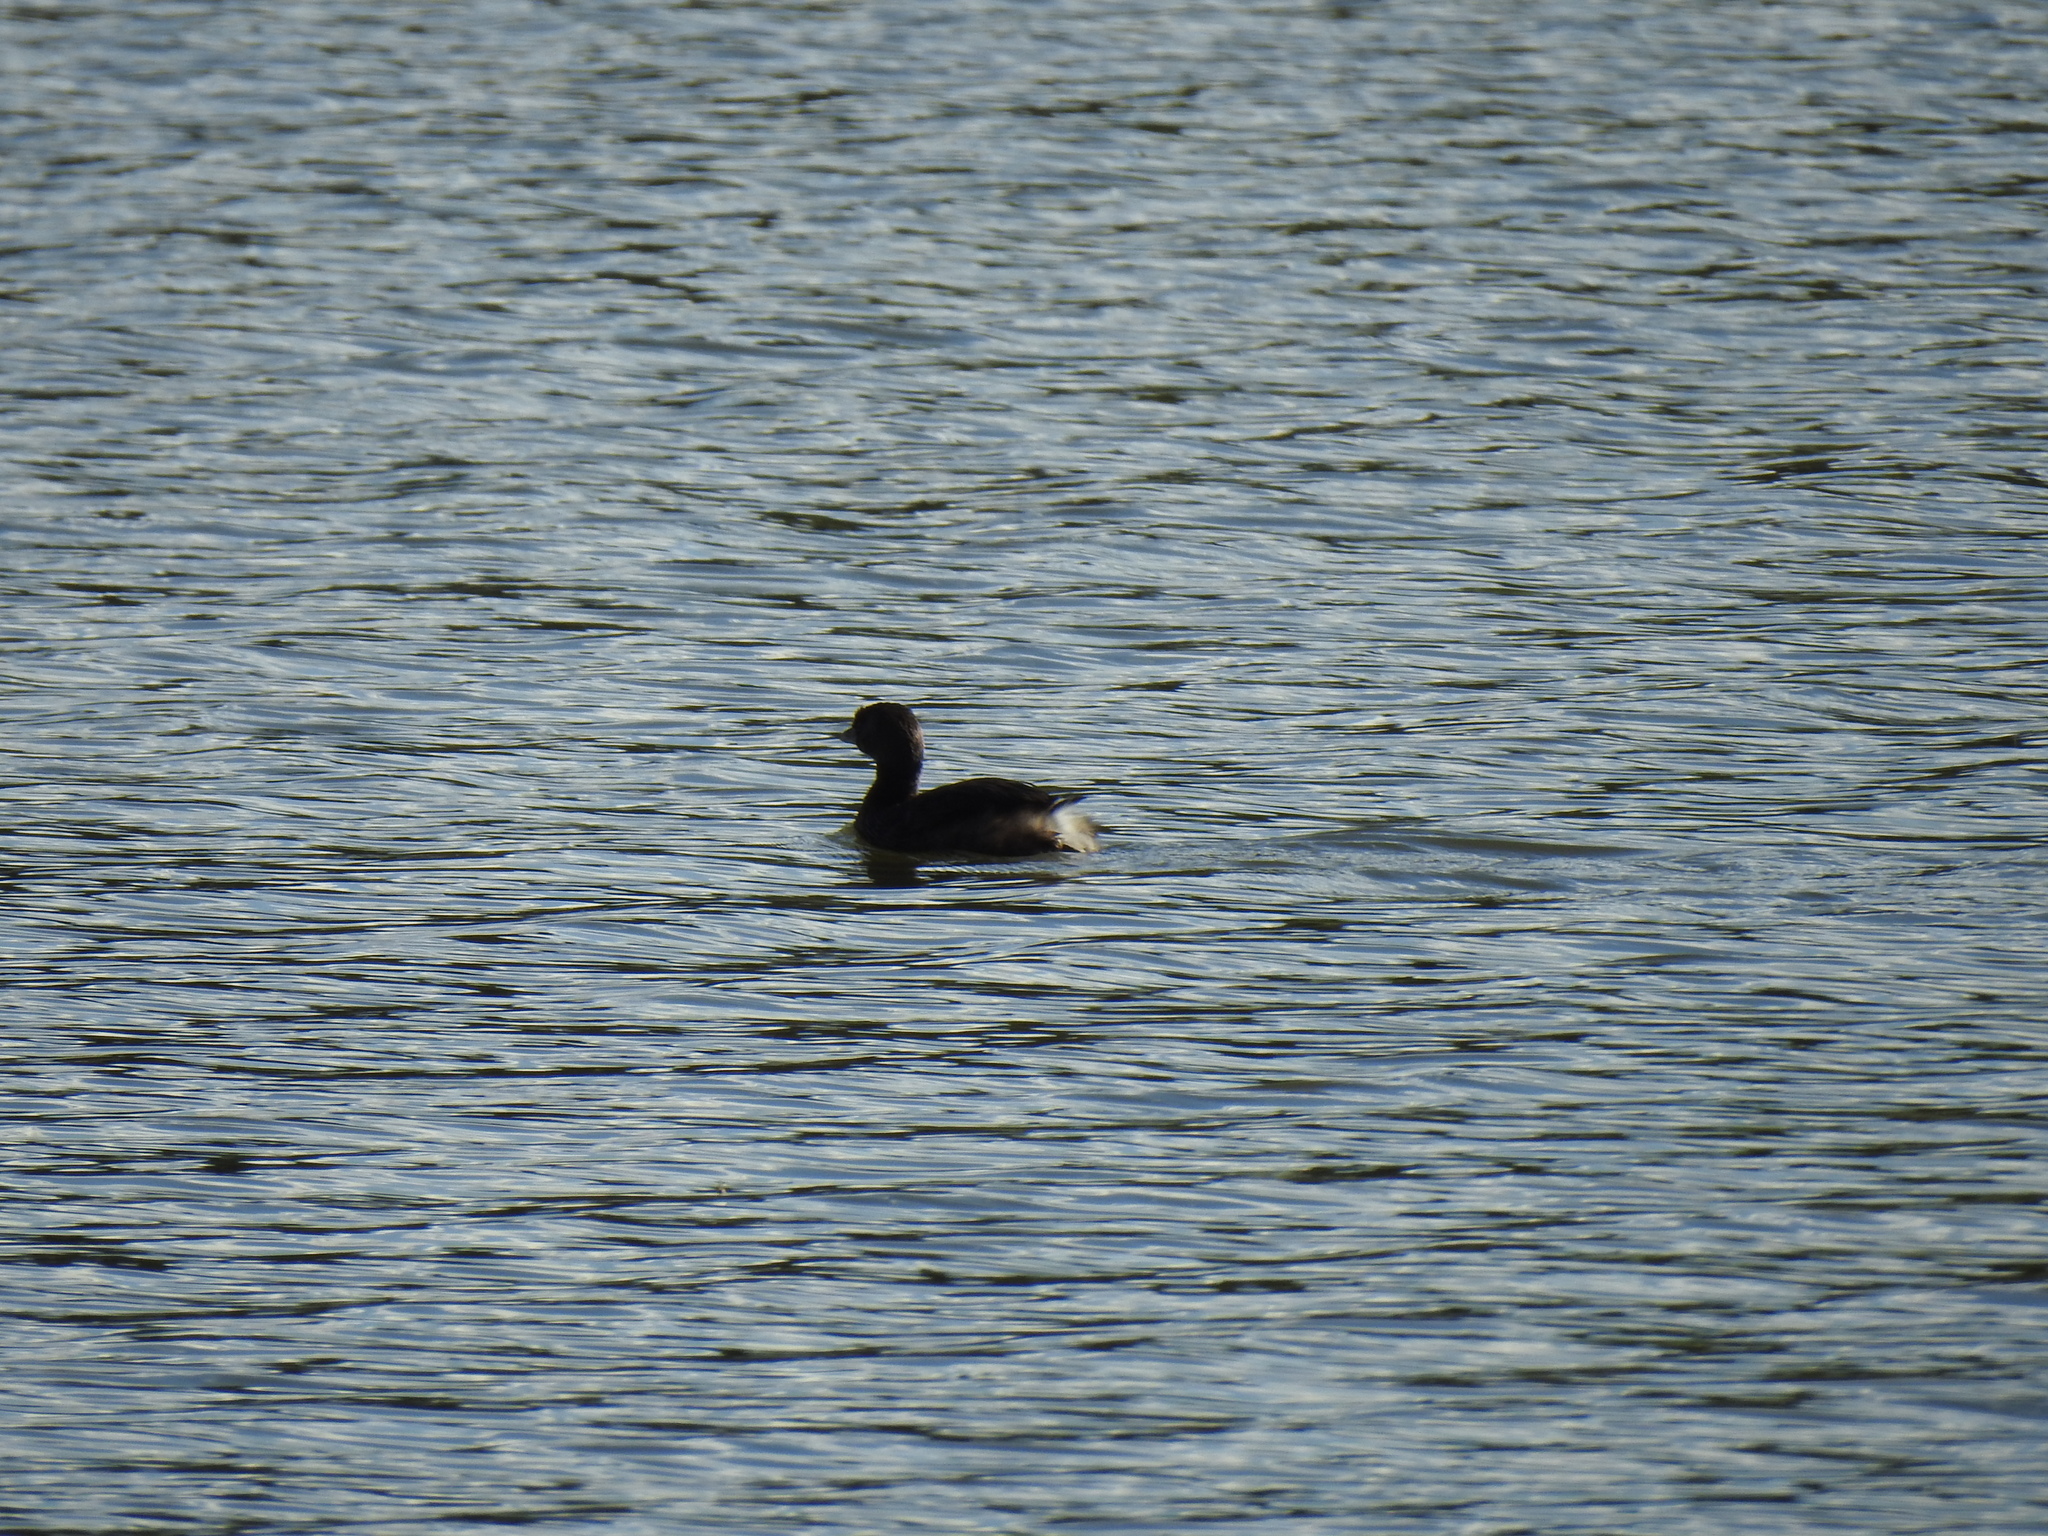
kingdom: Animalia
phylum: Chordata
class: Aves
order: Podicipediformes
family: Podicipedidae
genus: Podilymbus
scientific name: Podilymbus podiceps
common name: Pied-billed grebe
